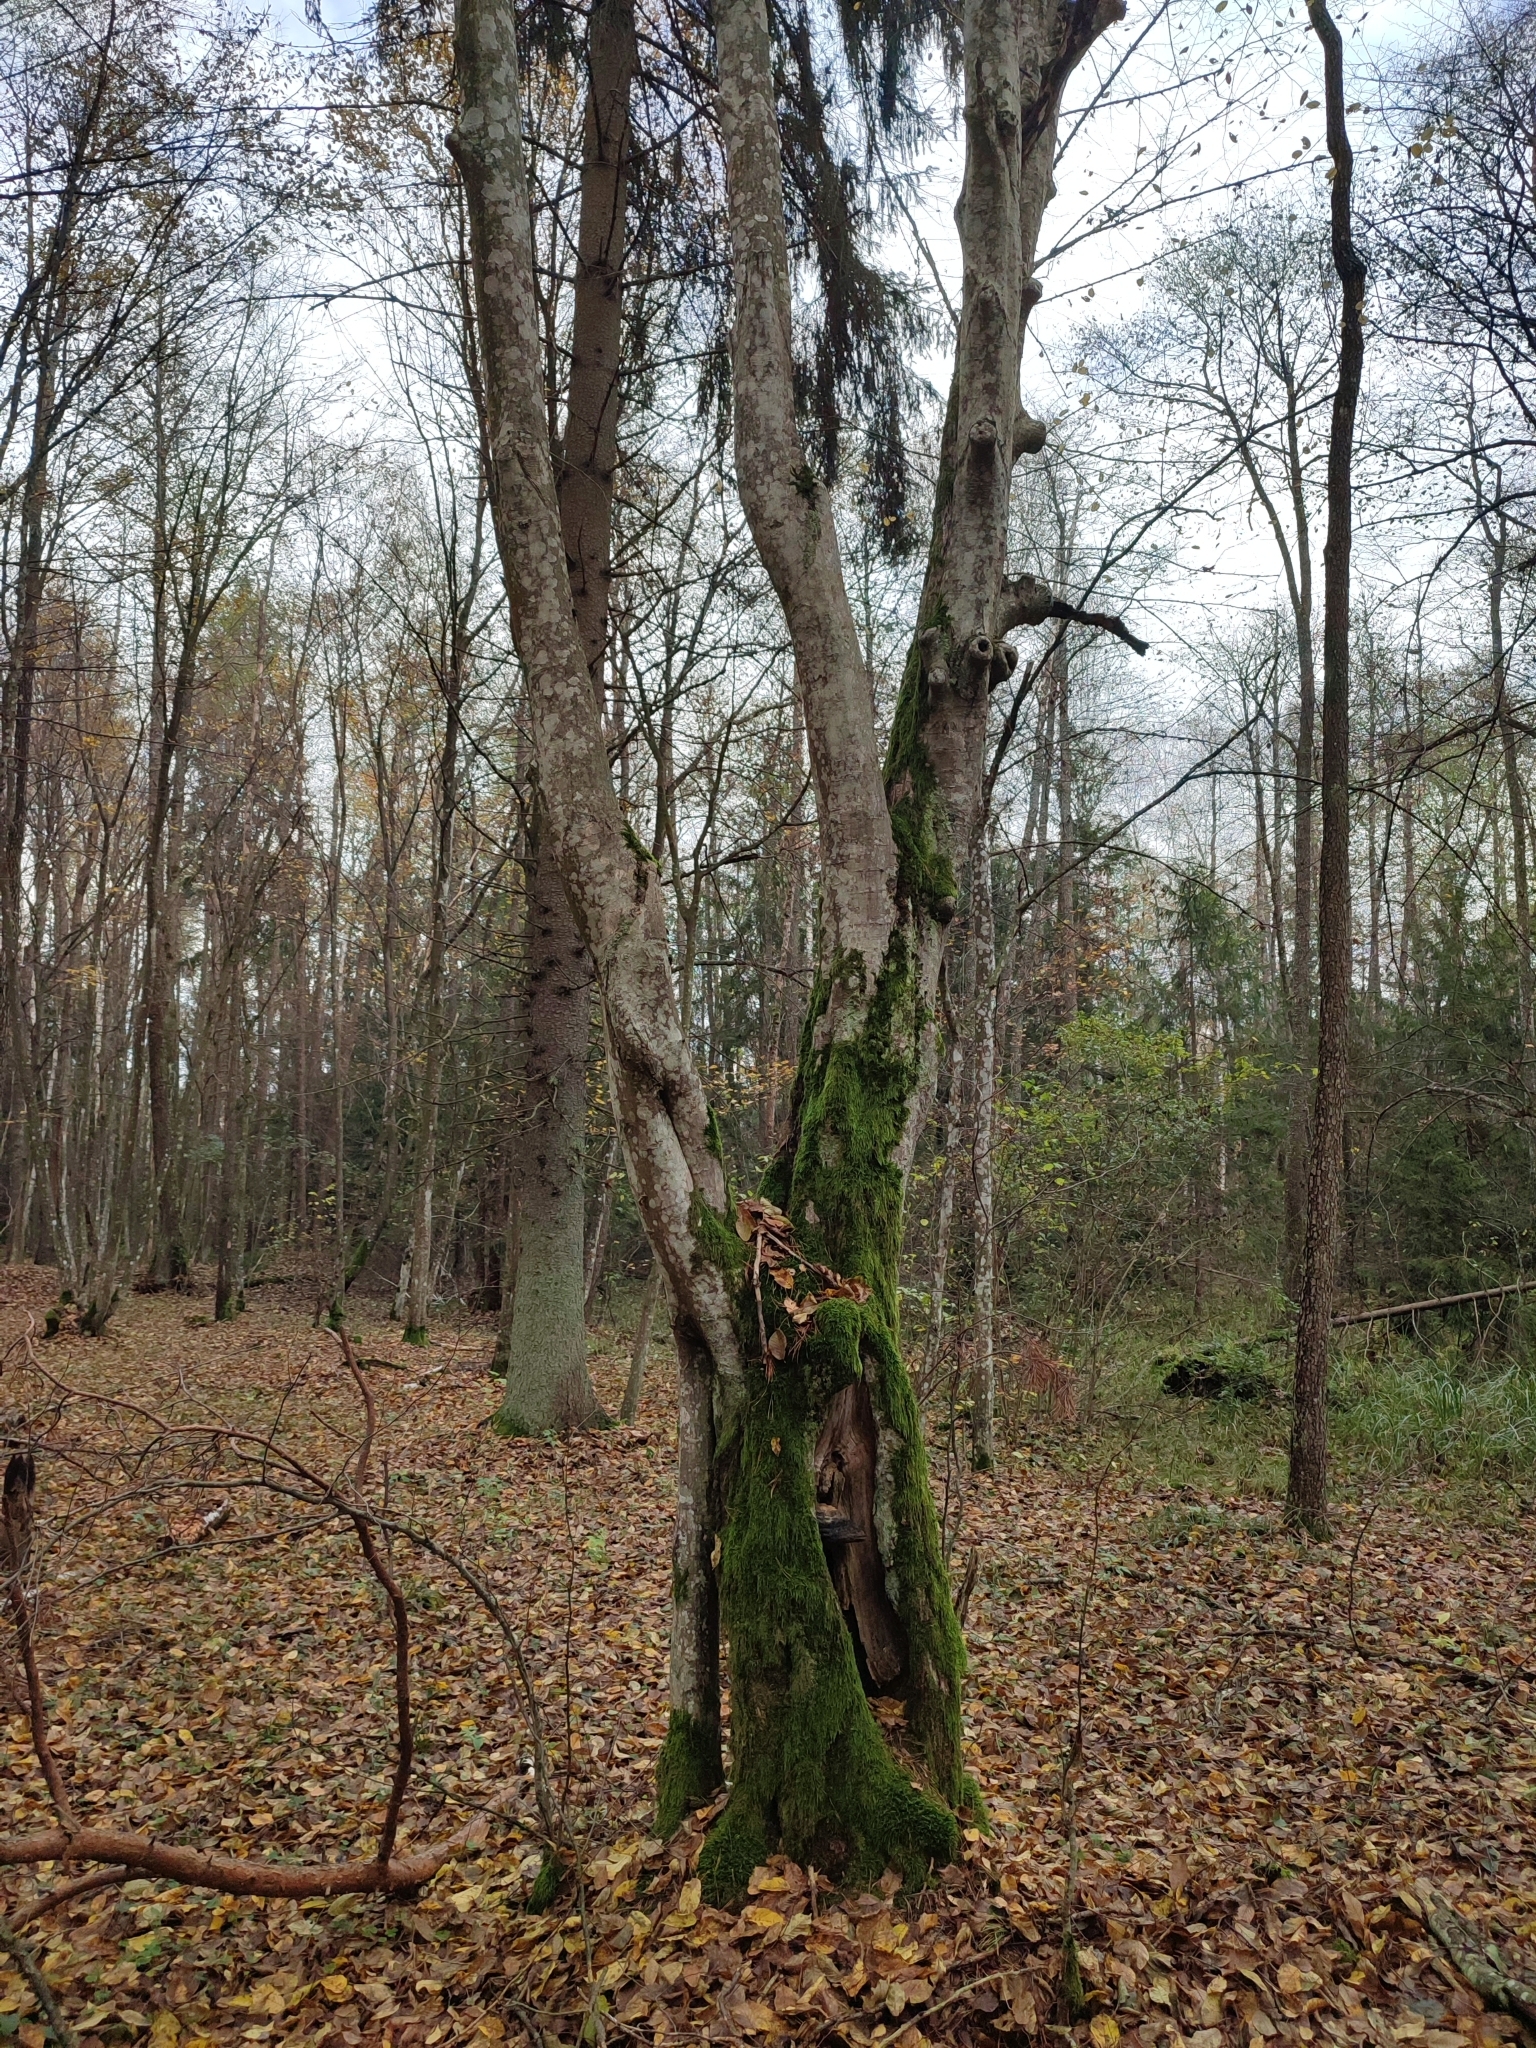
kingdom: Plantae
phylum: Tracheophyta
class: Magnoliopsida
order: Fagales
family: Betulaceae
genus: Carpinus
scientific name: Carpinus betulus
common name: Hornbeam
